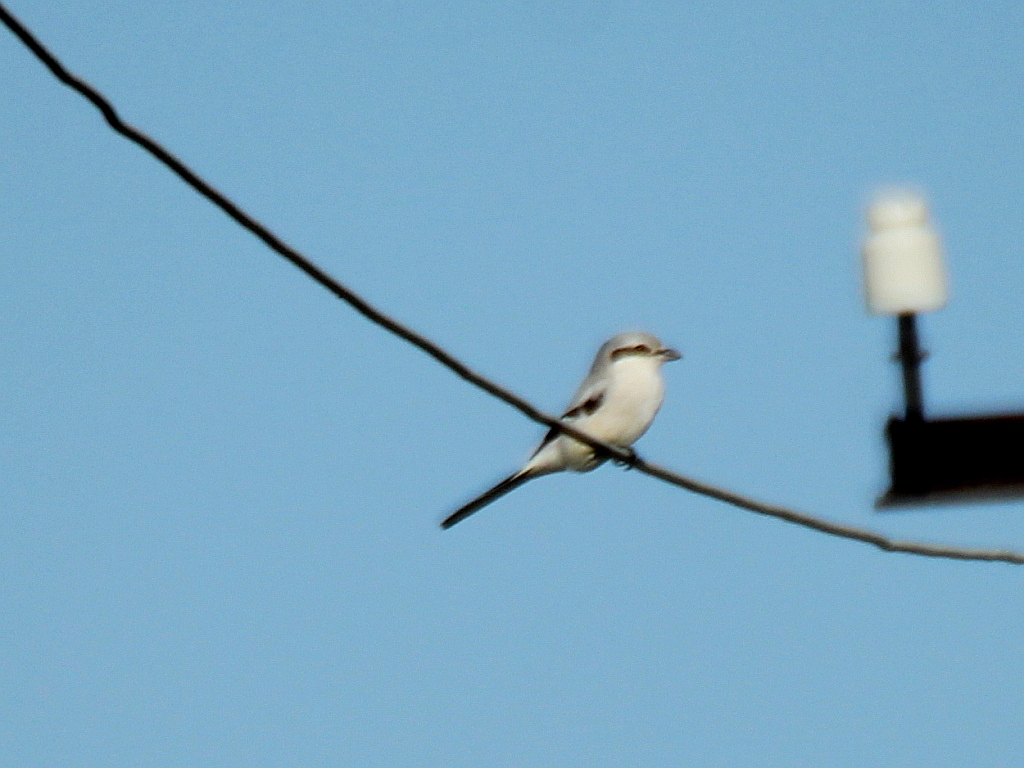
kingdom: Animalia
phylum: Chordata
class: Aves
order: Passeriformes
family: Laniidae
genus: Lanius
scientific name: Lanius excubitor
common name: Great grey shrike
